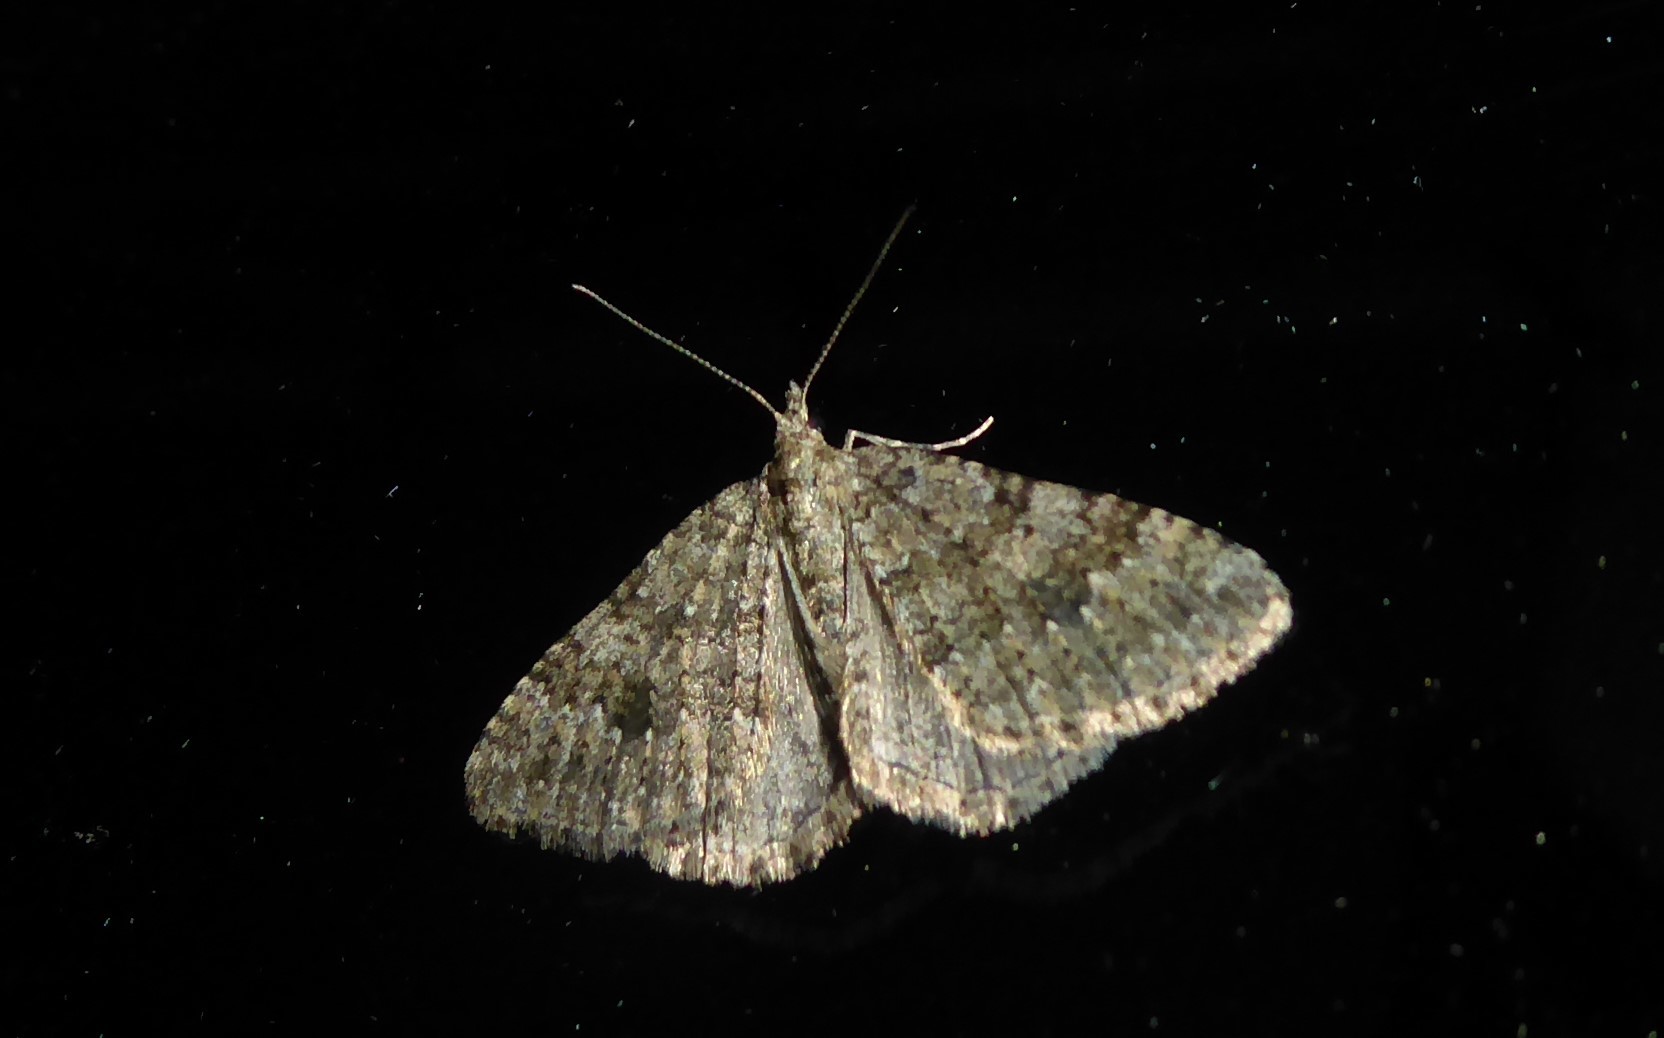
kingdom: Animalia
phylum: Arthropoda
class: Insecta
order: Lepidoptera
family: Geometridae
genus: Helastia
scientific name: Helastia corcularia
